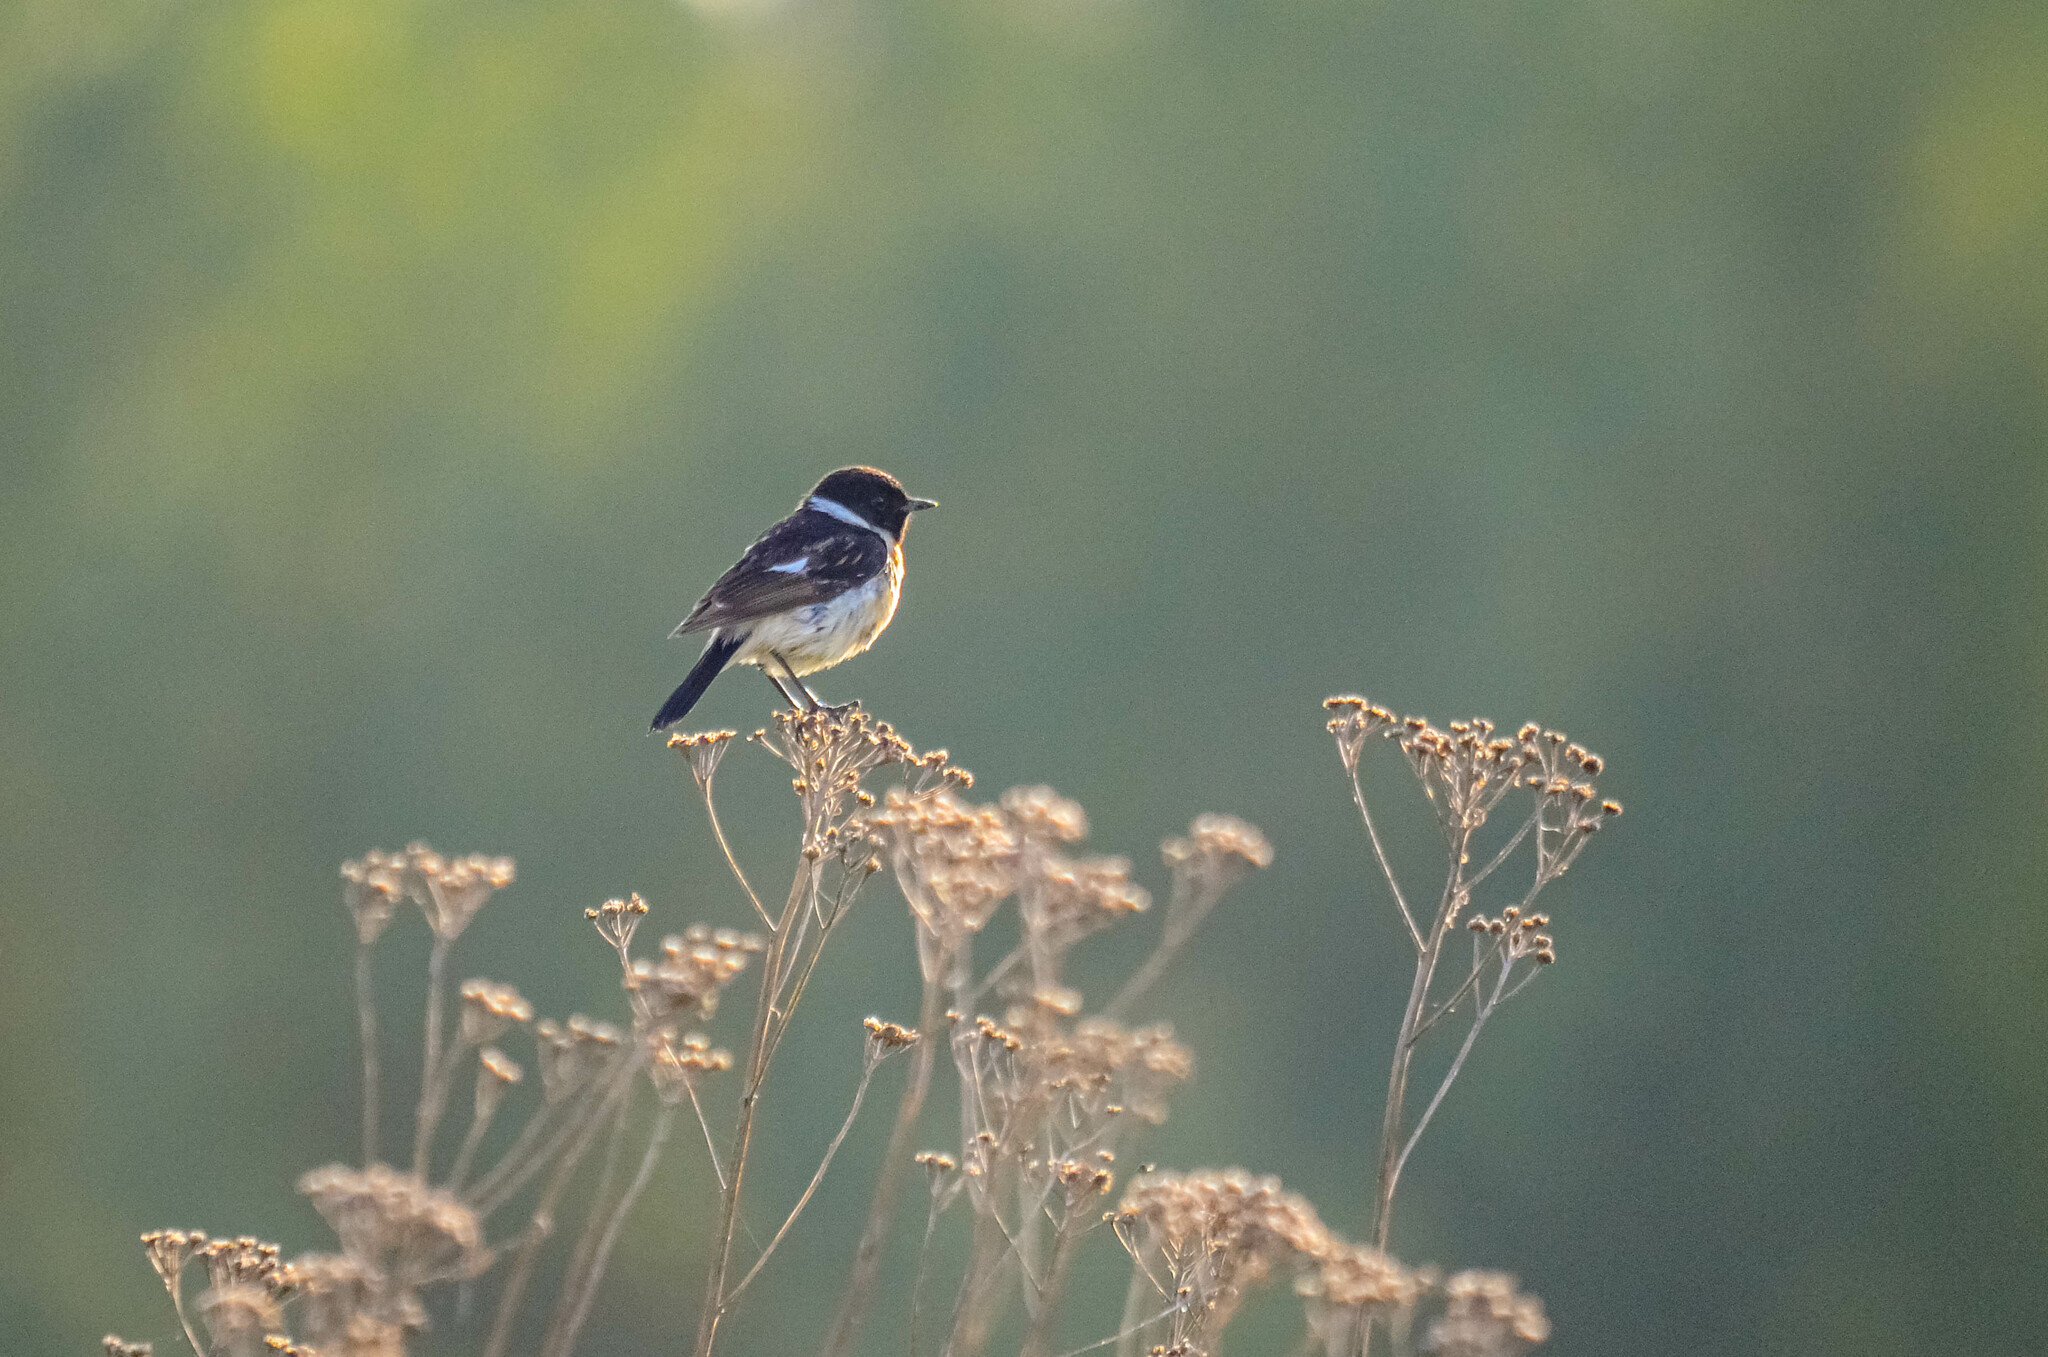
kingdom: Animalia
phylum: Chordata
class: Aves
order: Passeriformes
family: Muscicapidae
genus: Saxicola
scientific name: Saxicola maurus
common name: Siberian stonechat
